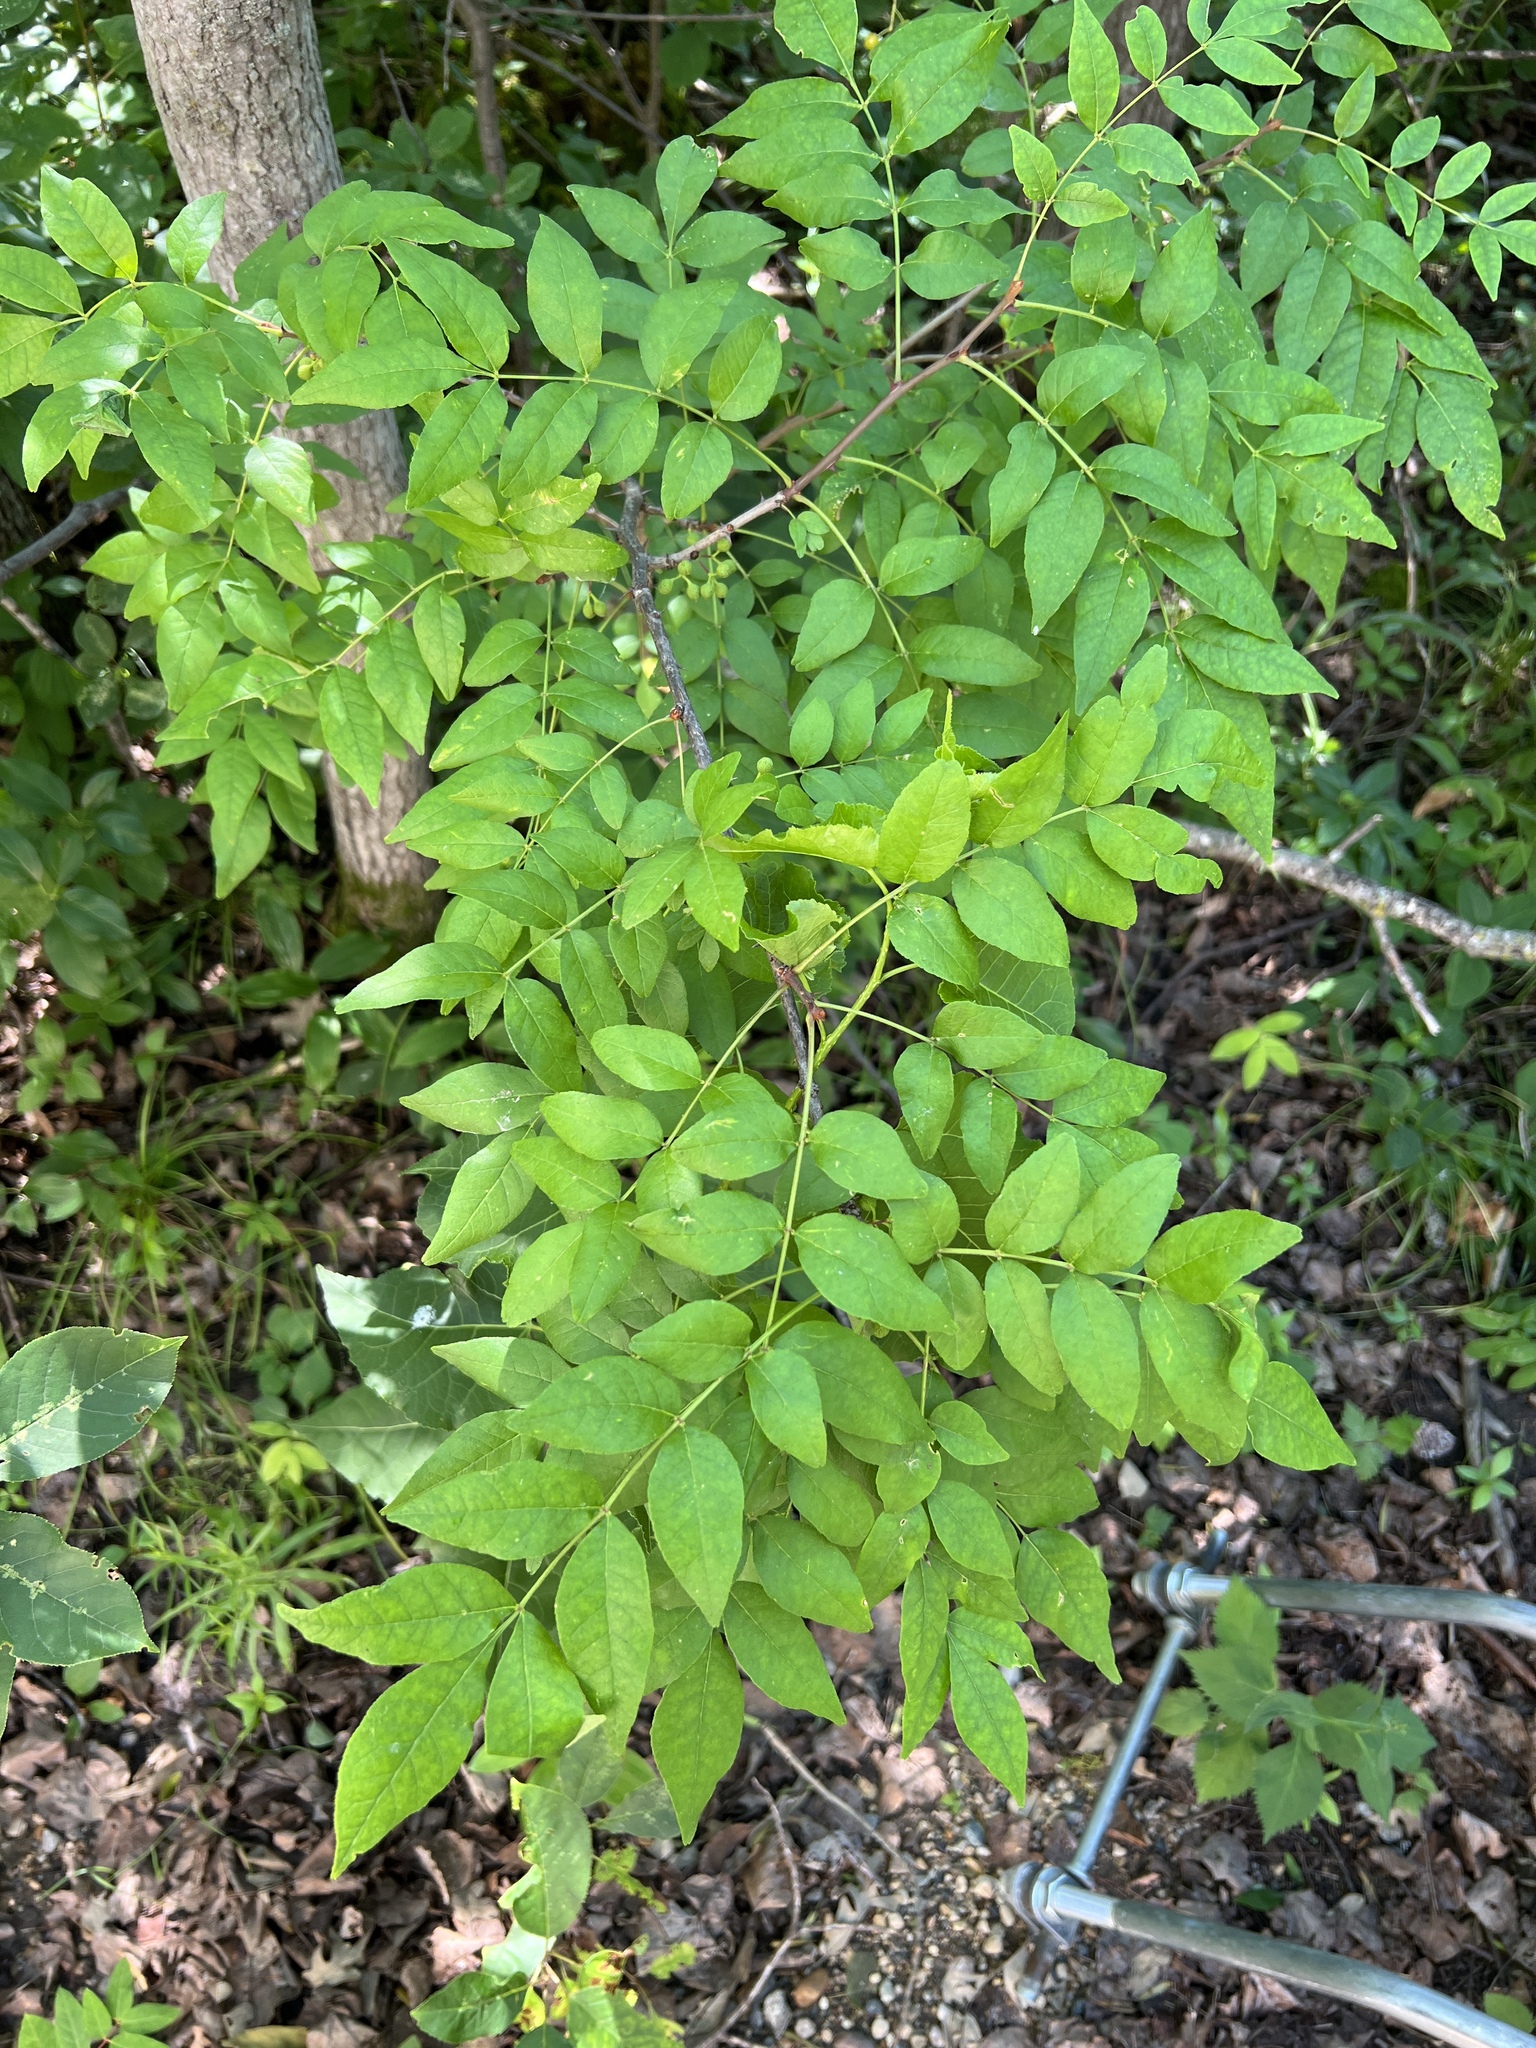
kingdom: Plantae
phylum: Tracheophyta
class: Magnoliopsida
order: Sapindales
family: Rutaceae
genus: Zanthoxylum
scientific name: Zanthoxylum americanum
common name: Northern prickly-ash
